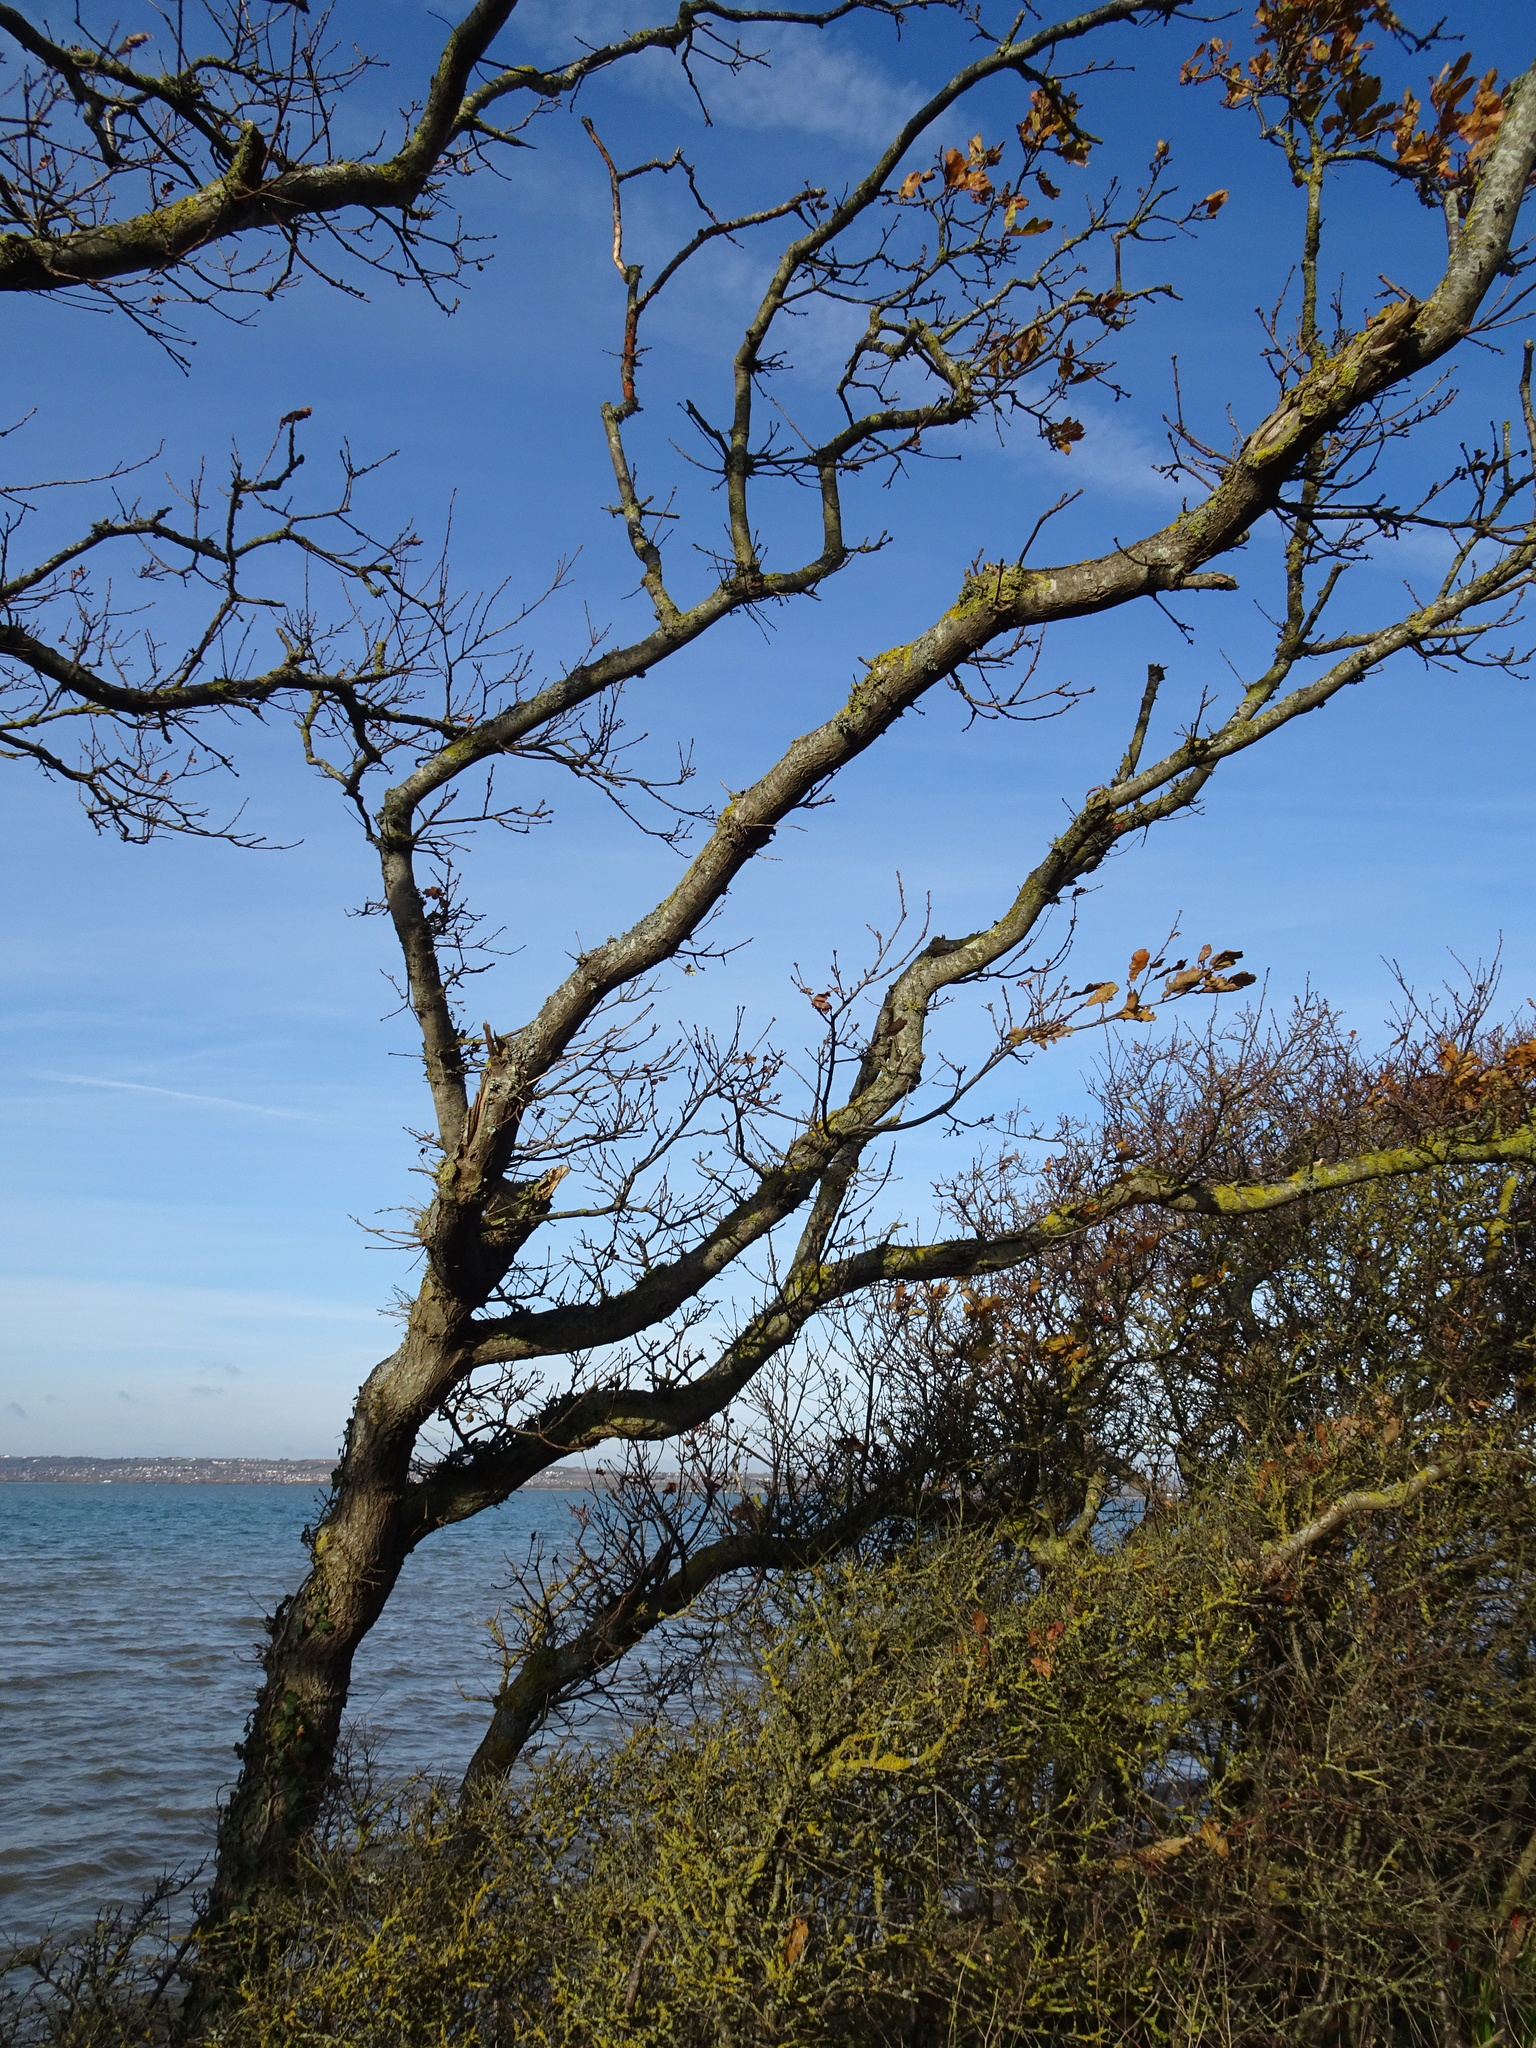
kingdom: Plantae
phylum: Tracheophyta
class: Magnoliopsida
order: Fagales
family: Fagaceae
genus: Quercus
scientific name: Quercus robur
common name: Pedunculate oak
